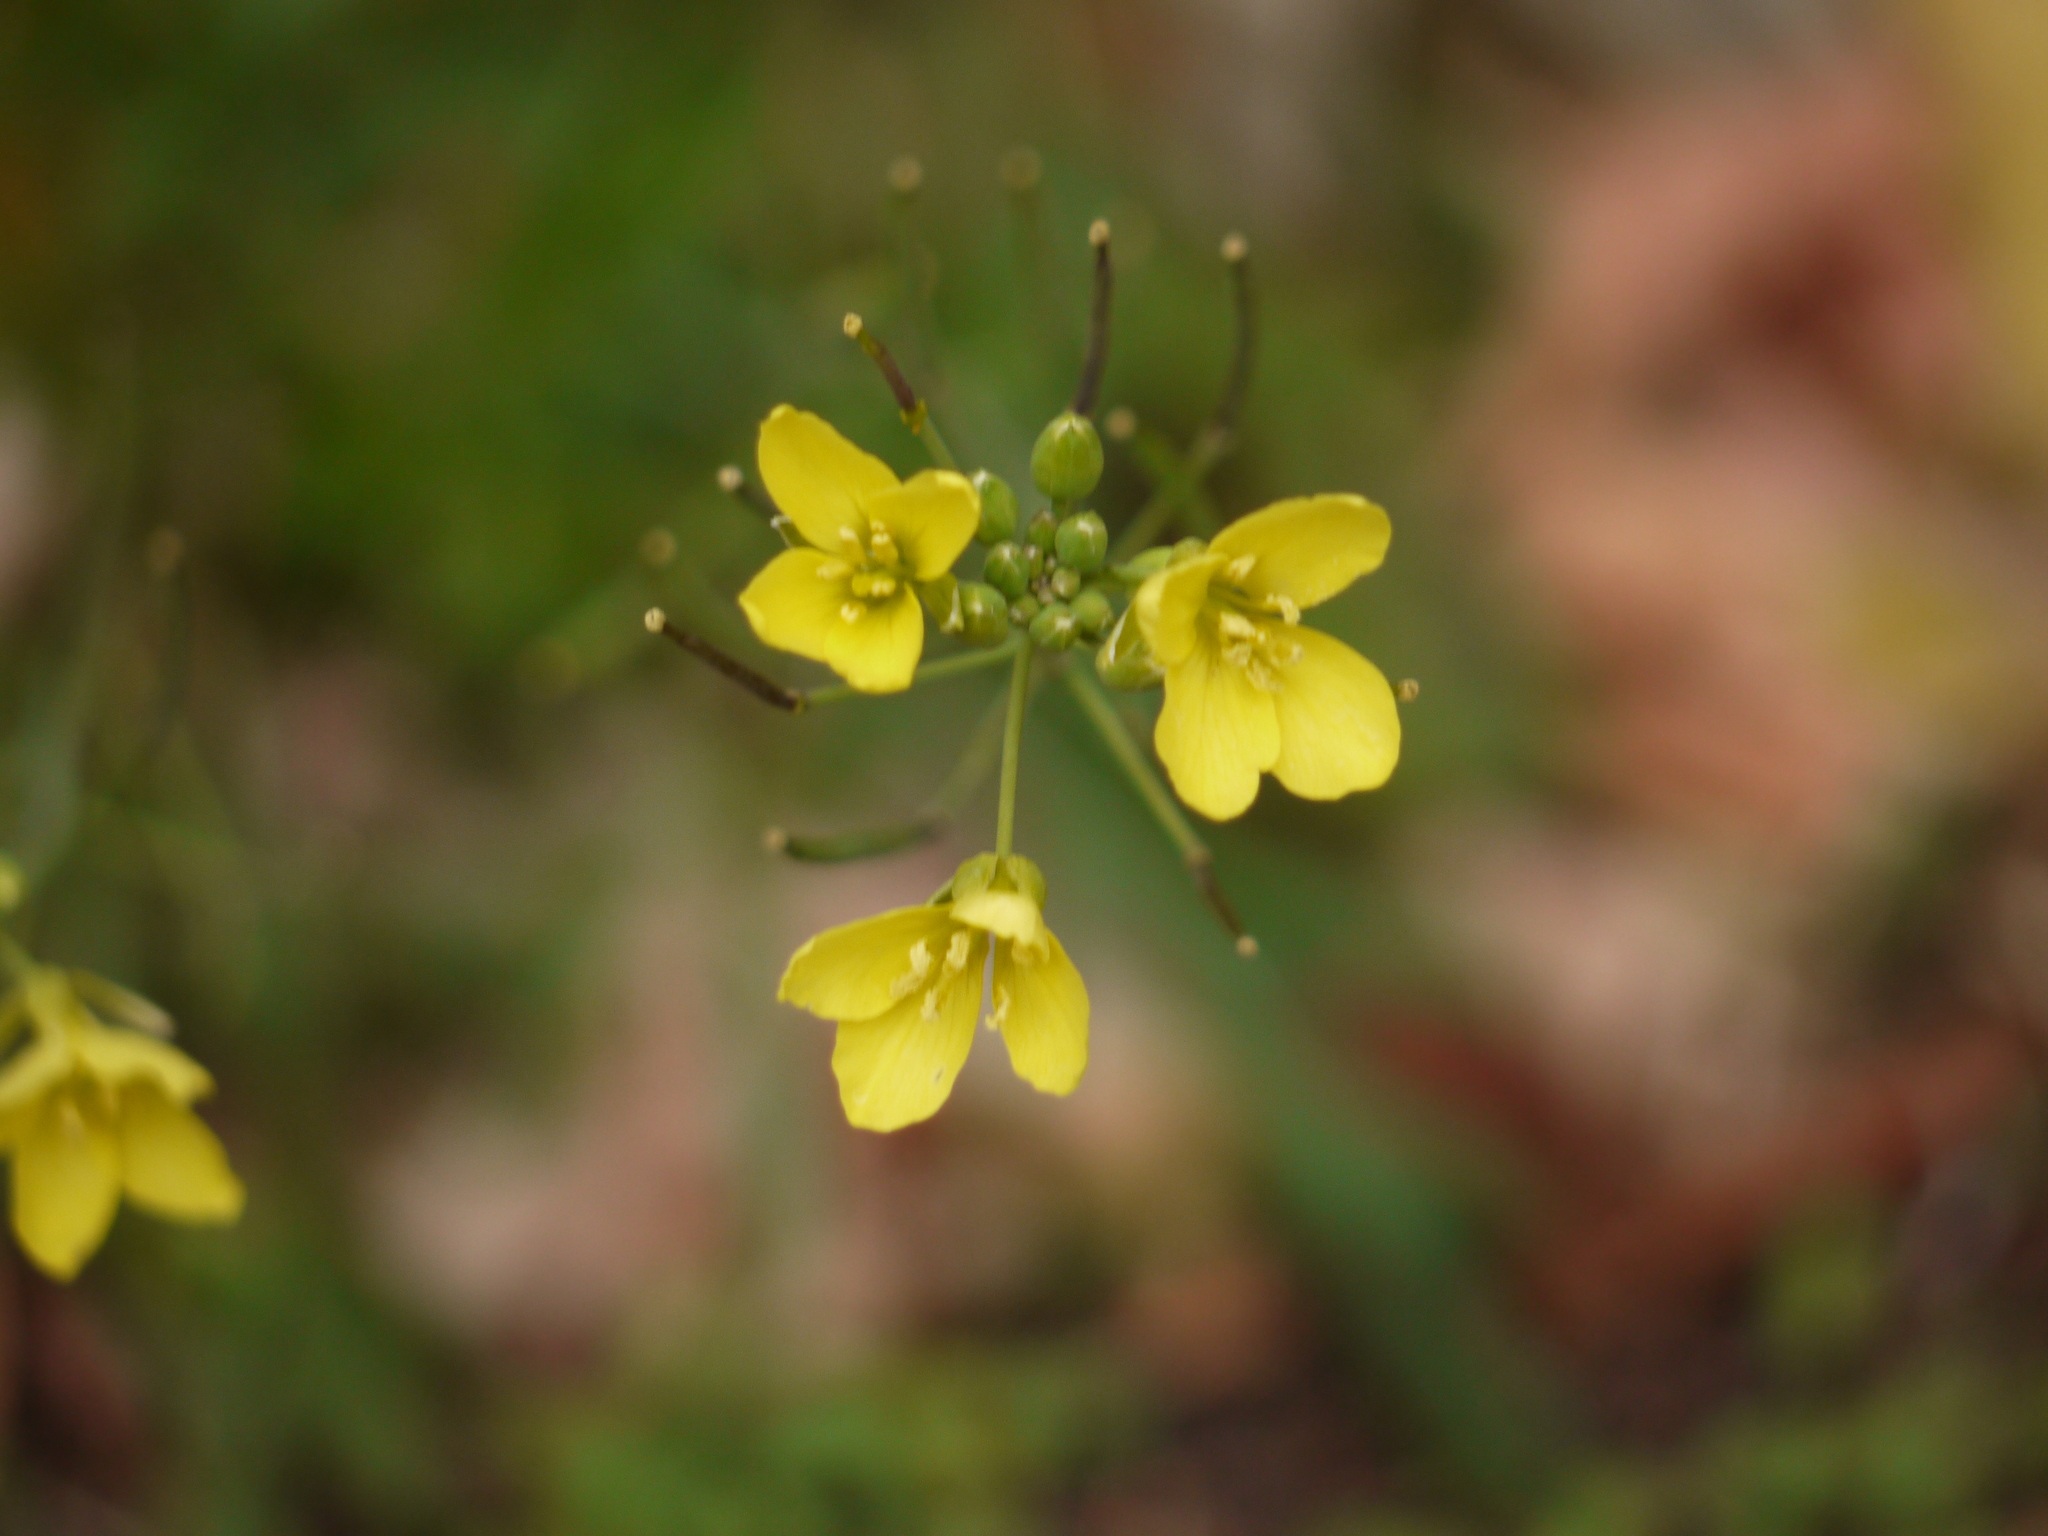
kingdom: Plantae
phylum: Tracheophyta
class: Magnoliopsida
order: Brassicales
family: Brassicaceae
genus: Diplotaxis
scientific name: Diplotaxis tenuifolia
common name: Perennial wall-rocket
